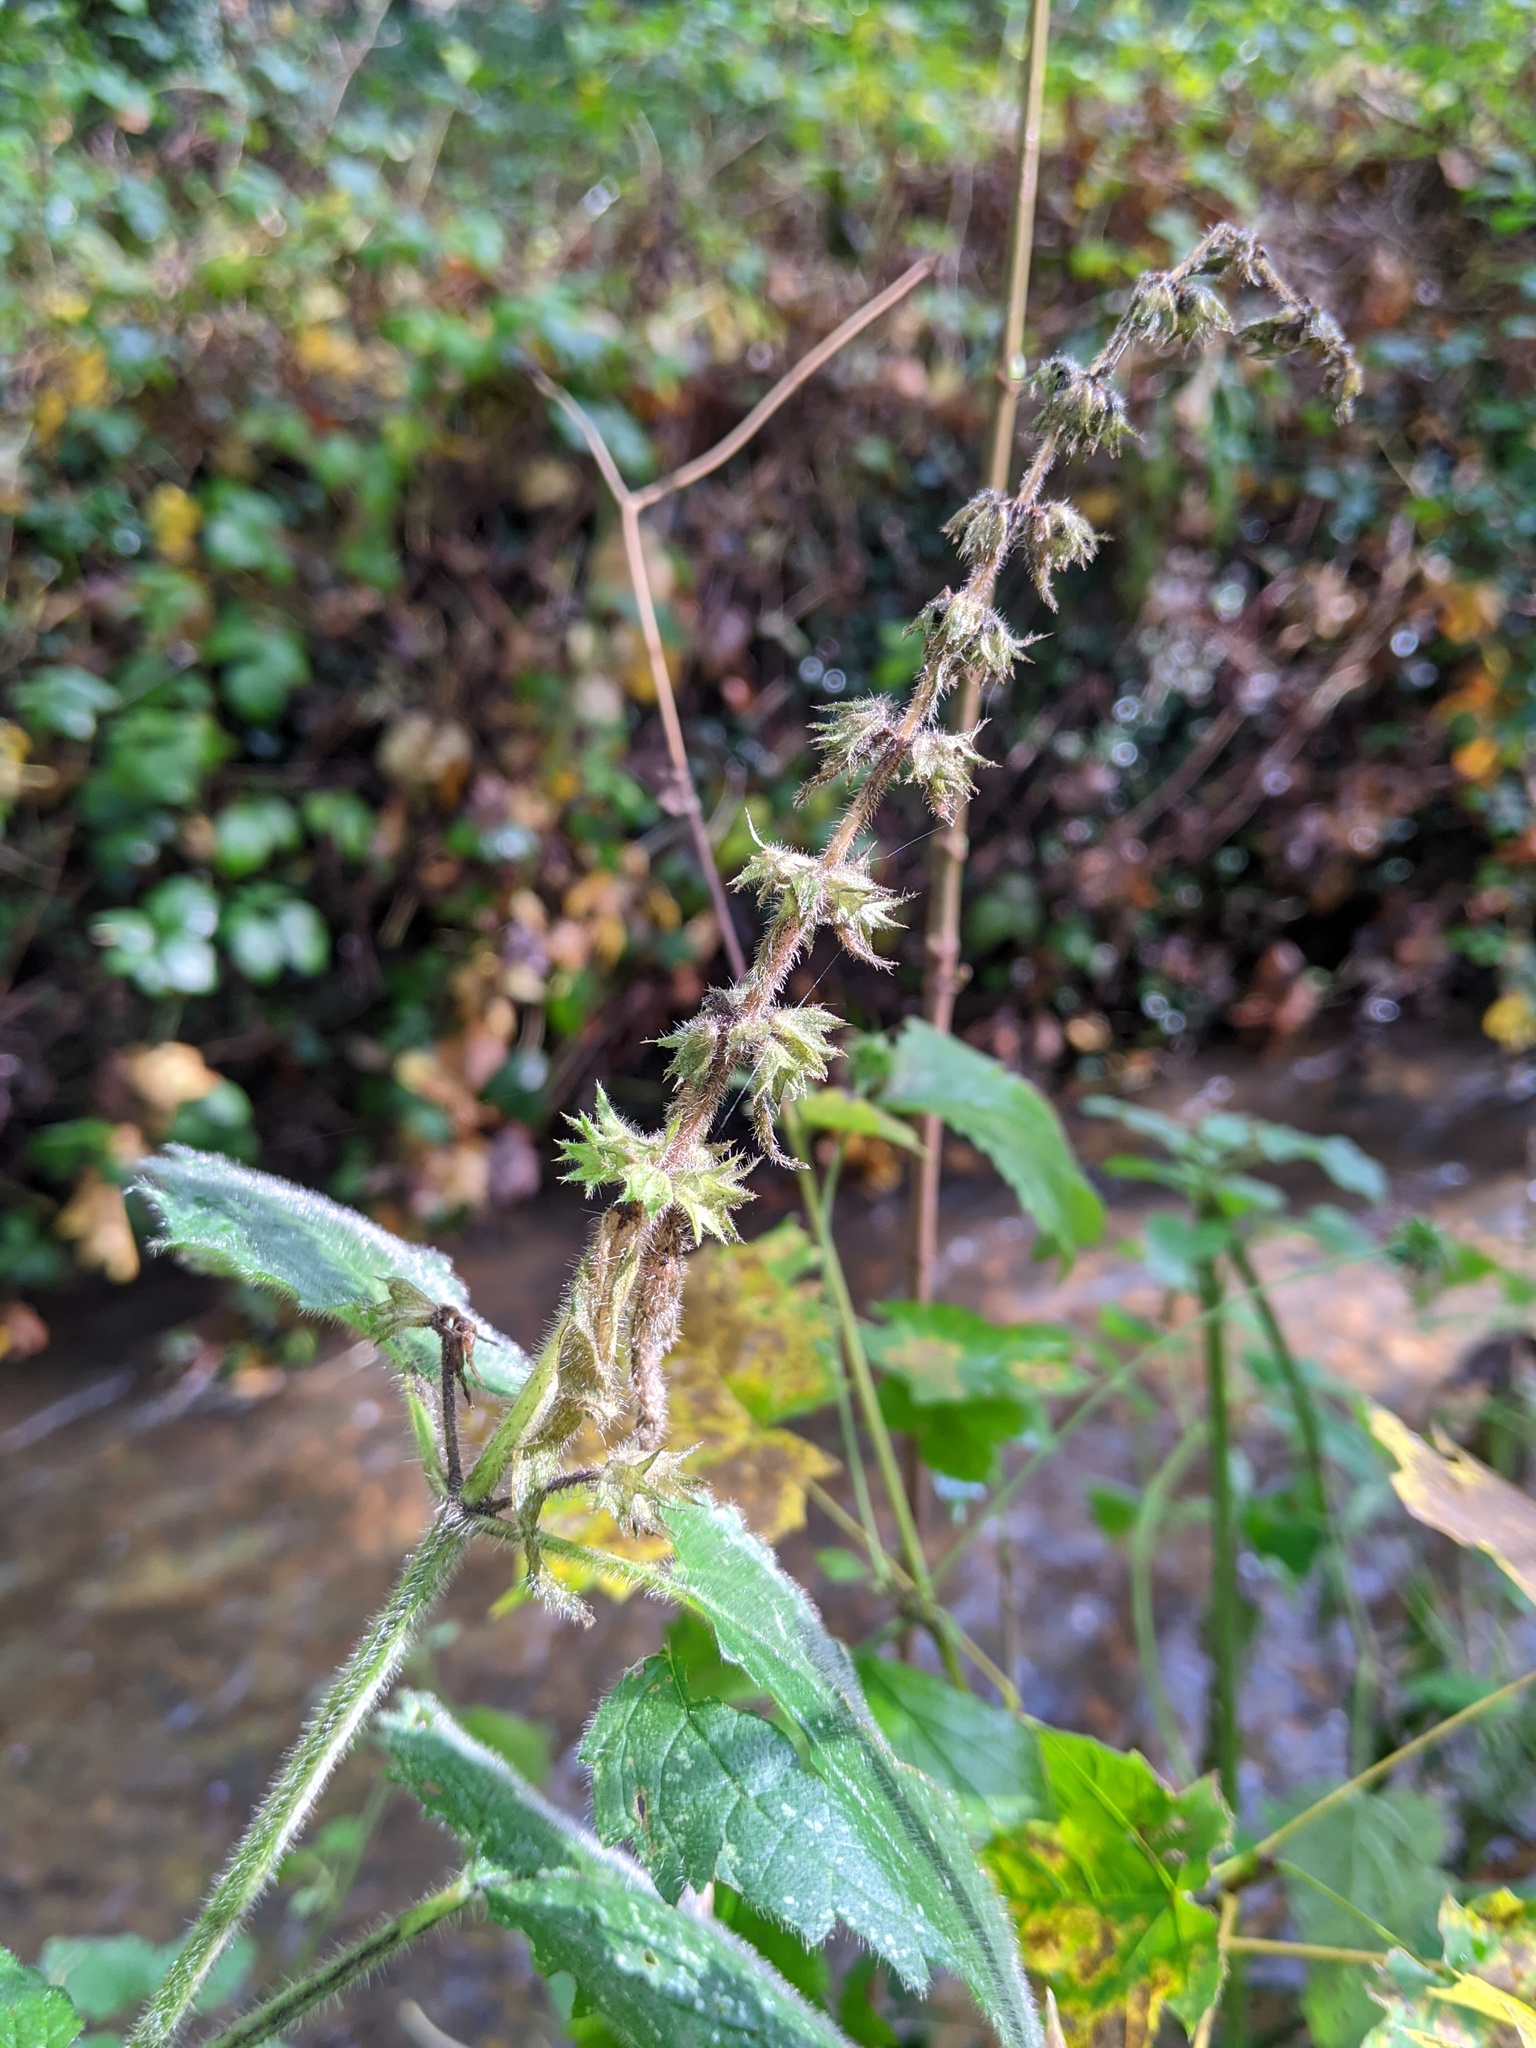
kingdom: Plantae
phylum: Tracheophyta
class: Magnoliopsida
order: Lamiales
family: Lamiaceae
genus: Stachys
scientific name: Stachys sylvatica
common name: Hedge woundwort
